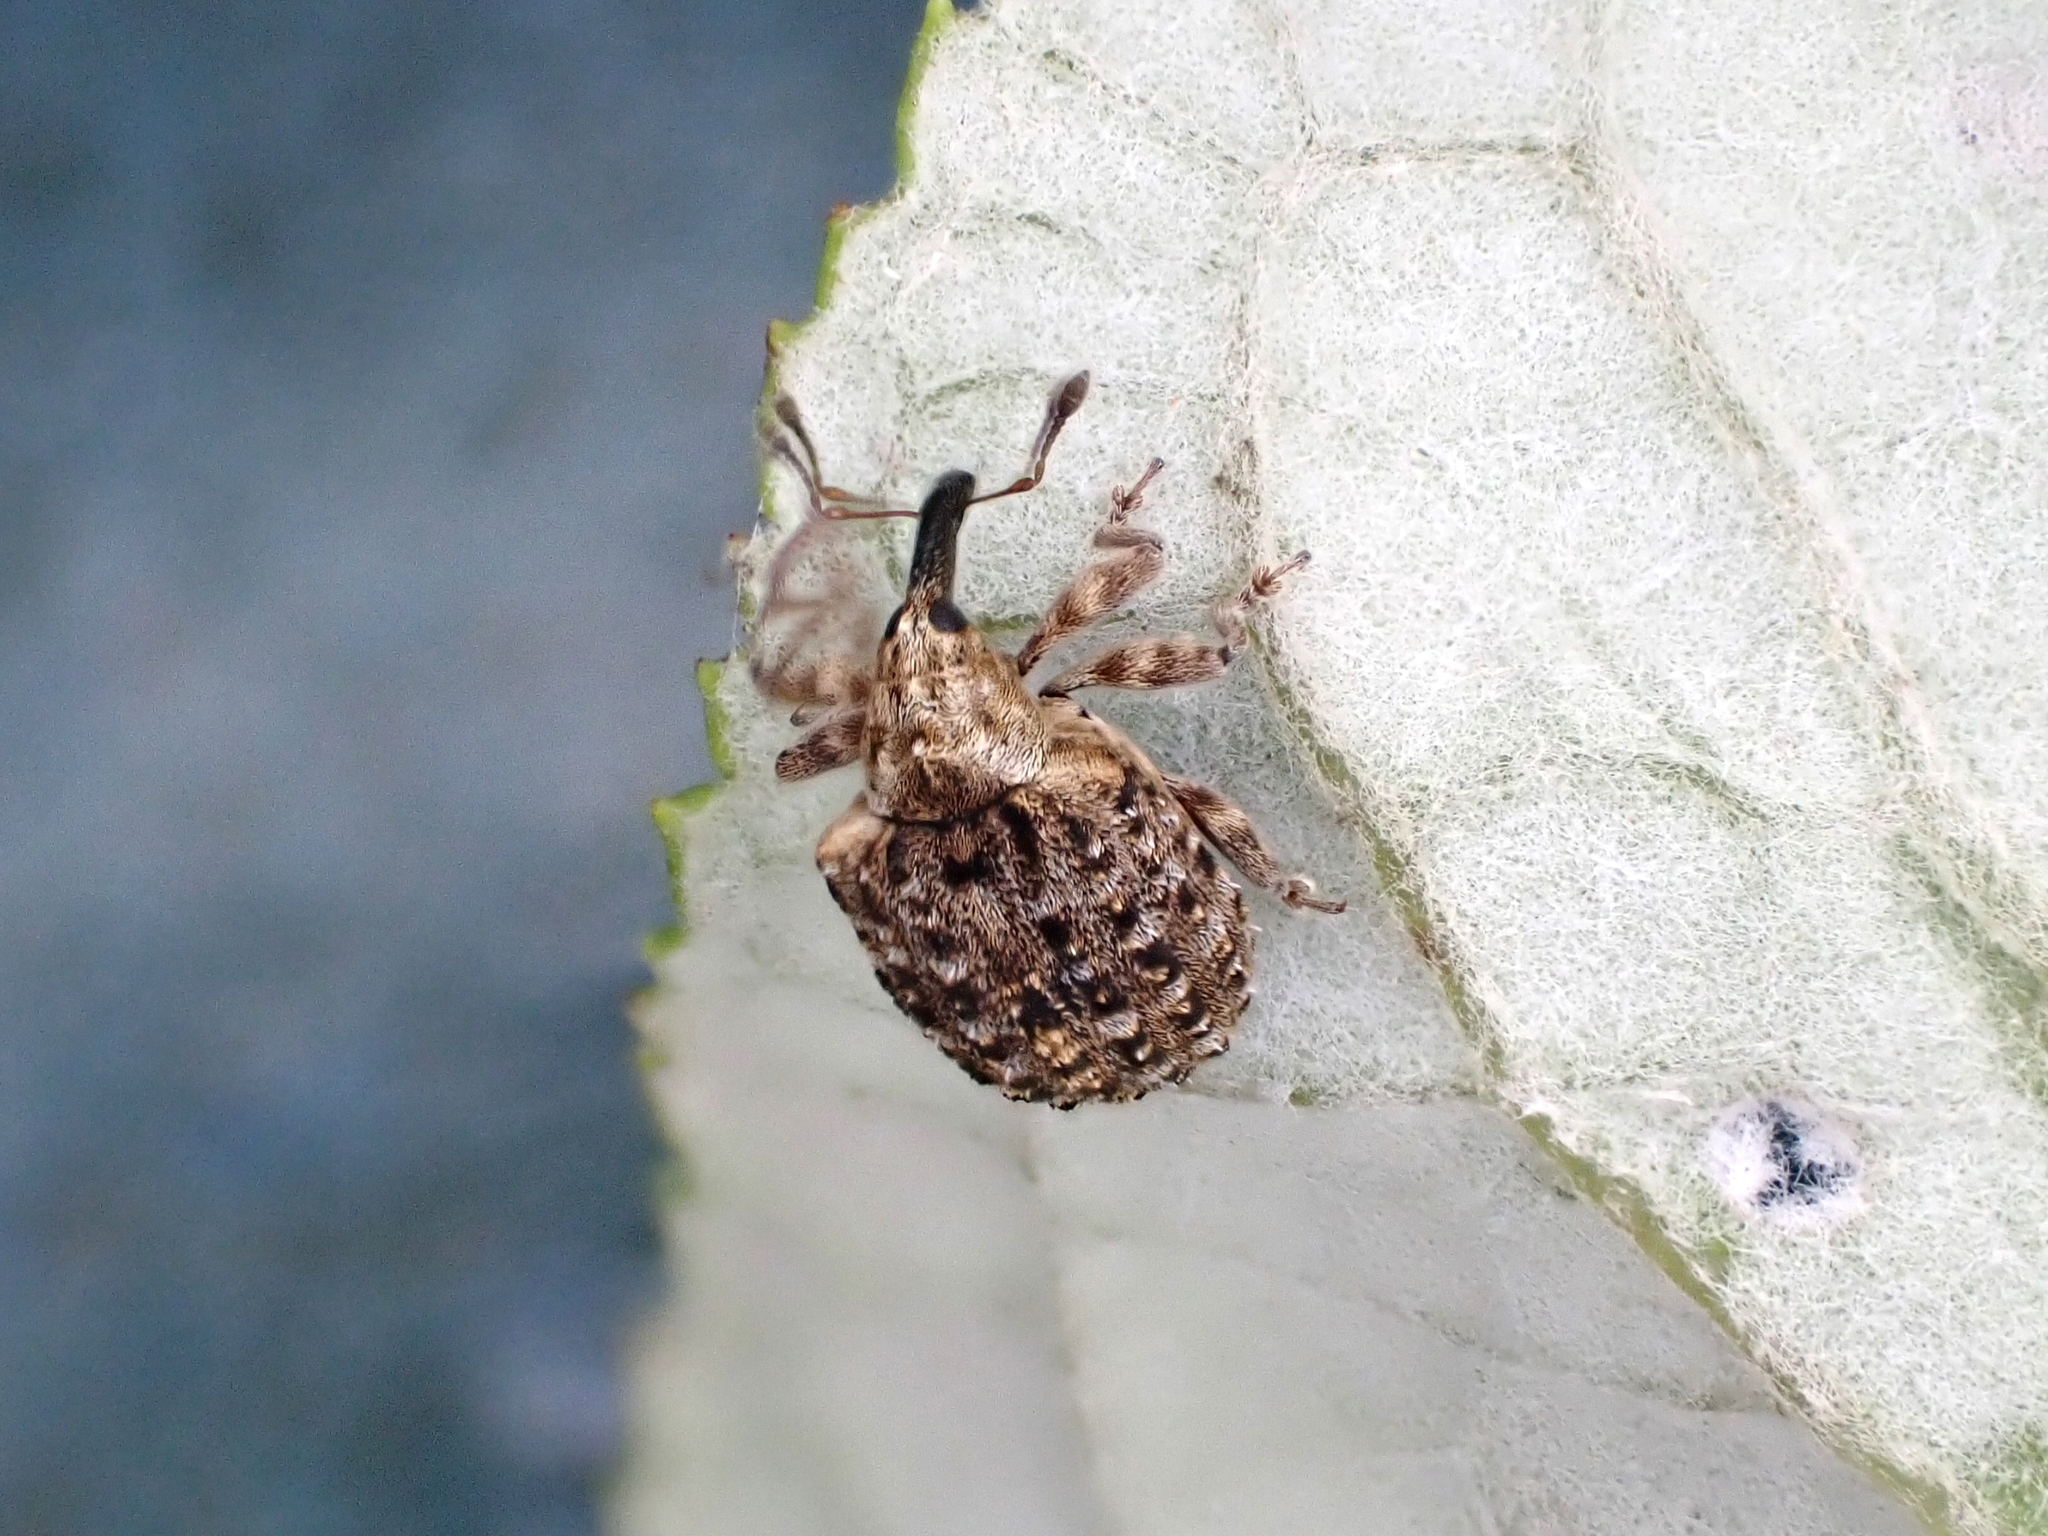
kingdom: Animalia
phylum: Arthropoda
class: Insecta
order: Coleoptera
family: Curculionidae
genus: Cleopus
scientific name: Cleopus japonicus
